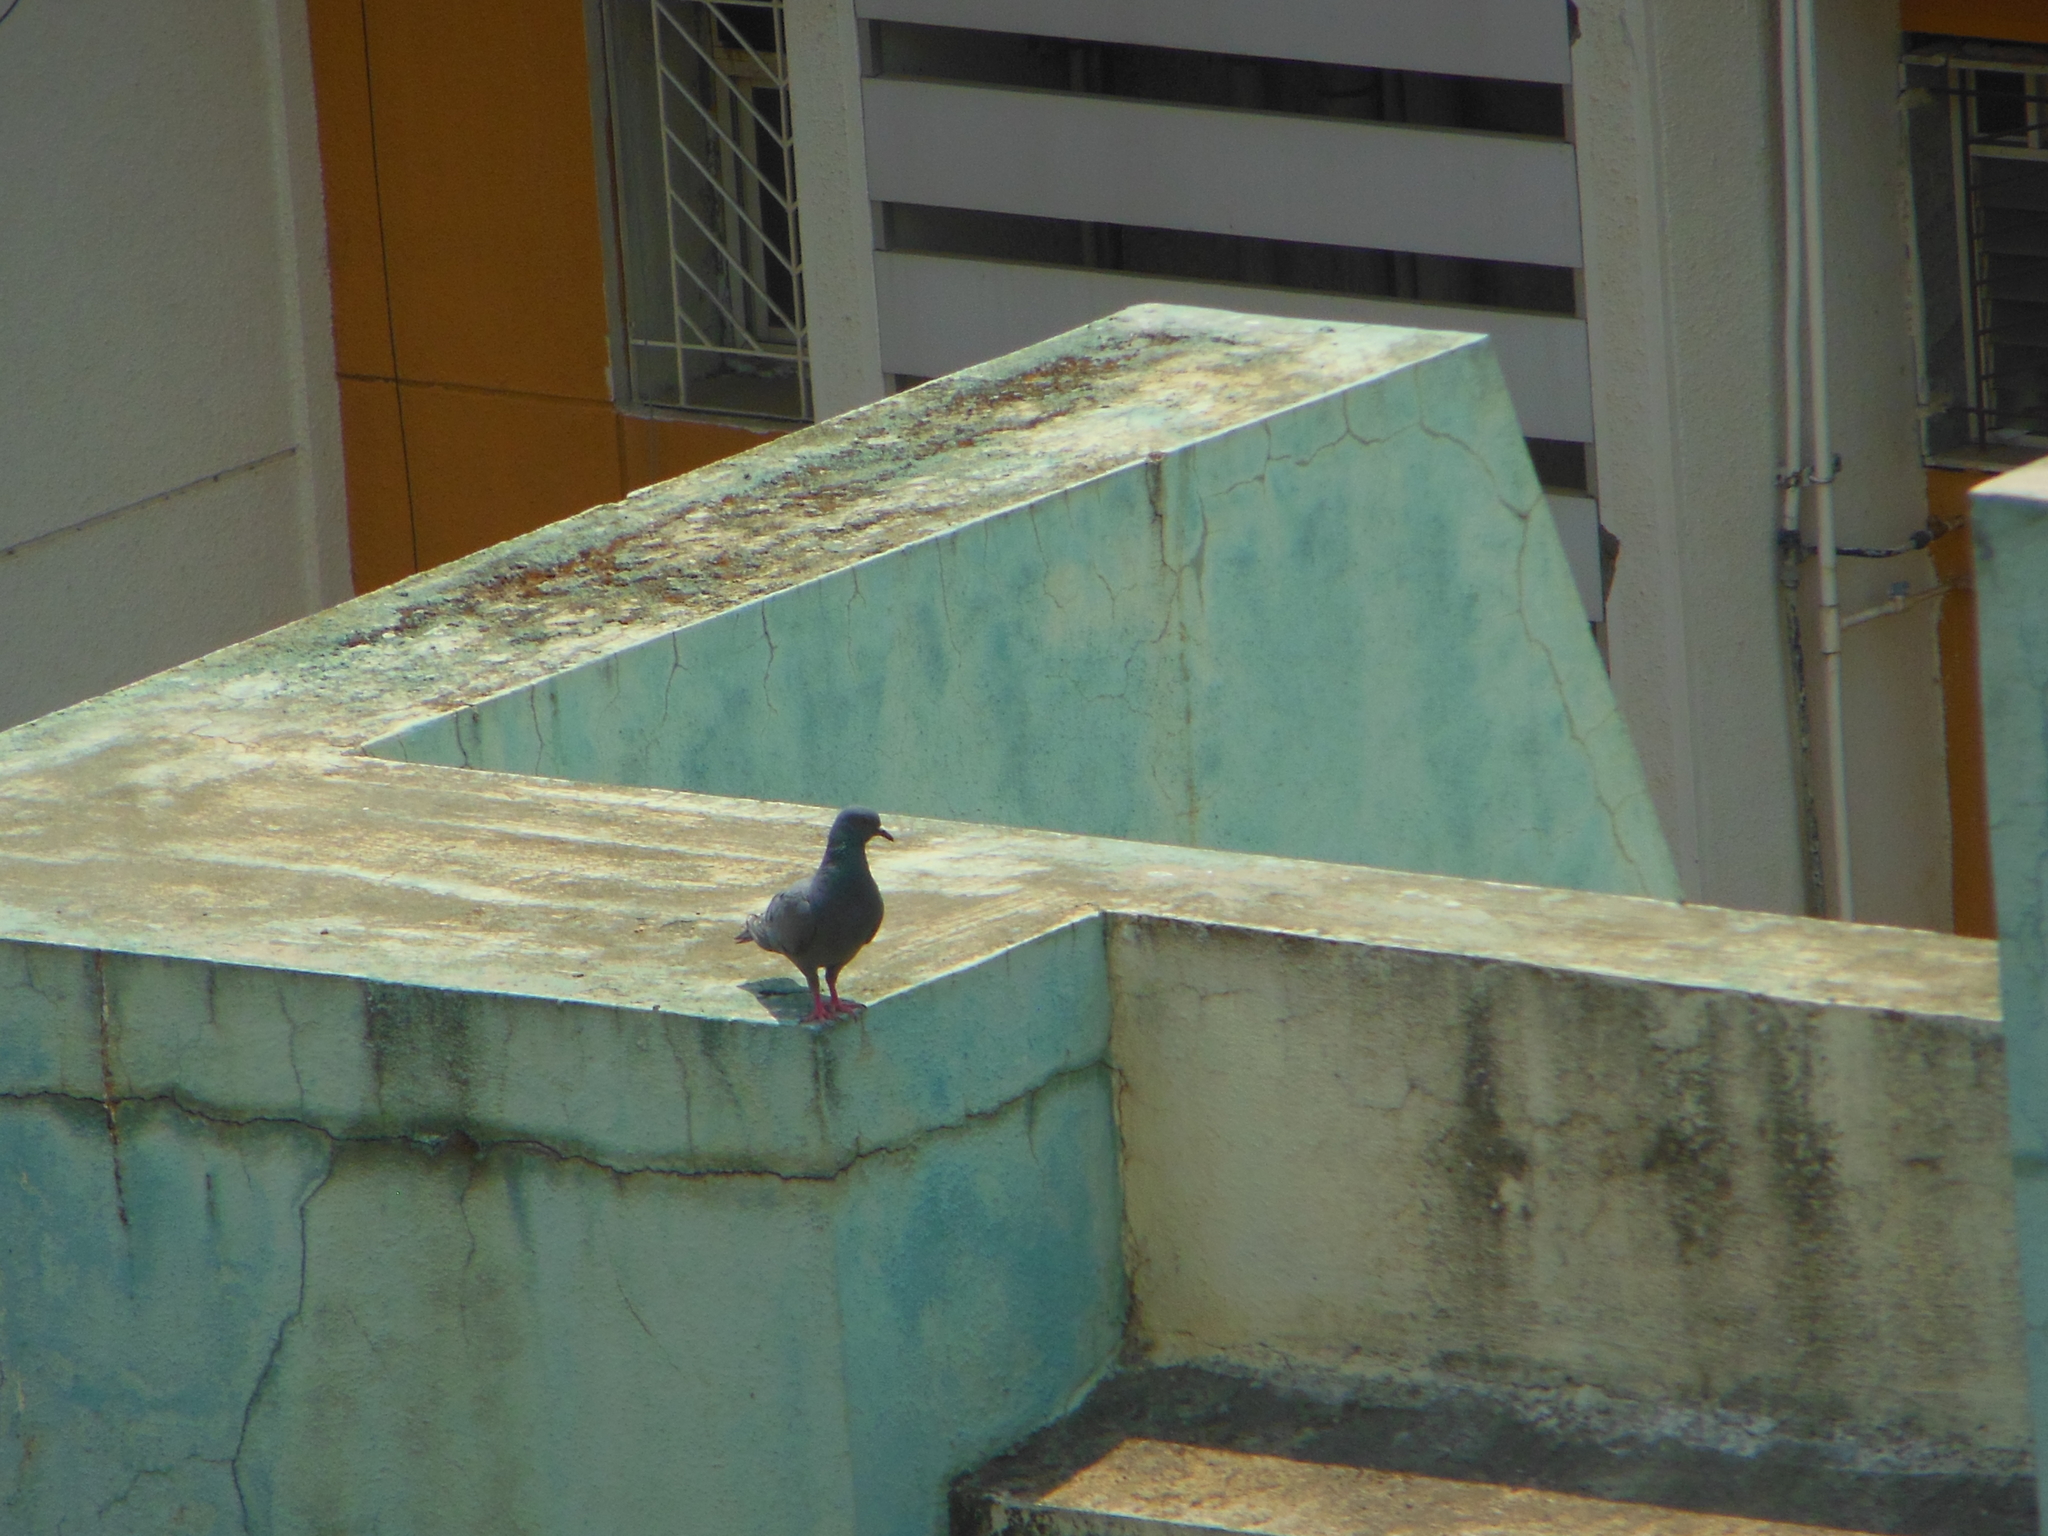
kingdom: Animalia
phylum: Chordata
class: Aves
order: Columbiformes
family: Columbidae
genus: Columba
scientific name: Columba livia
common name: Rock pigeon
